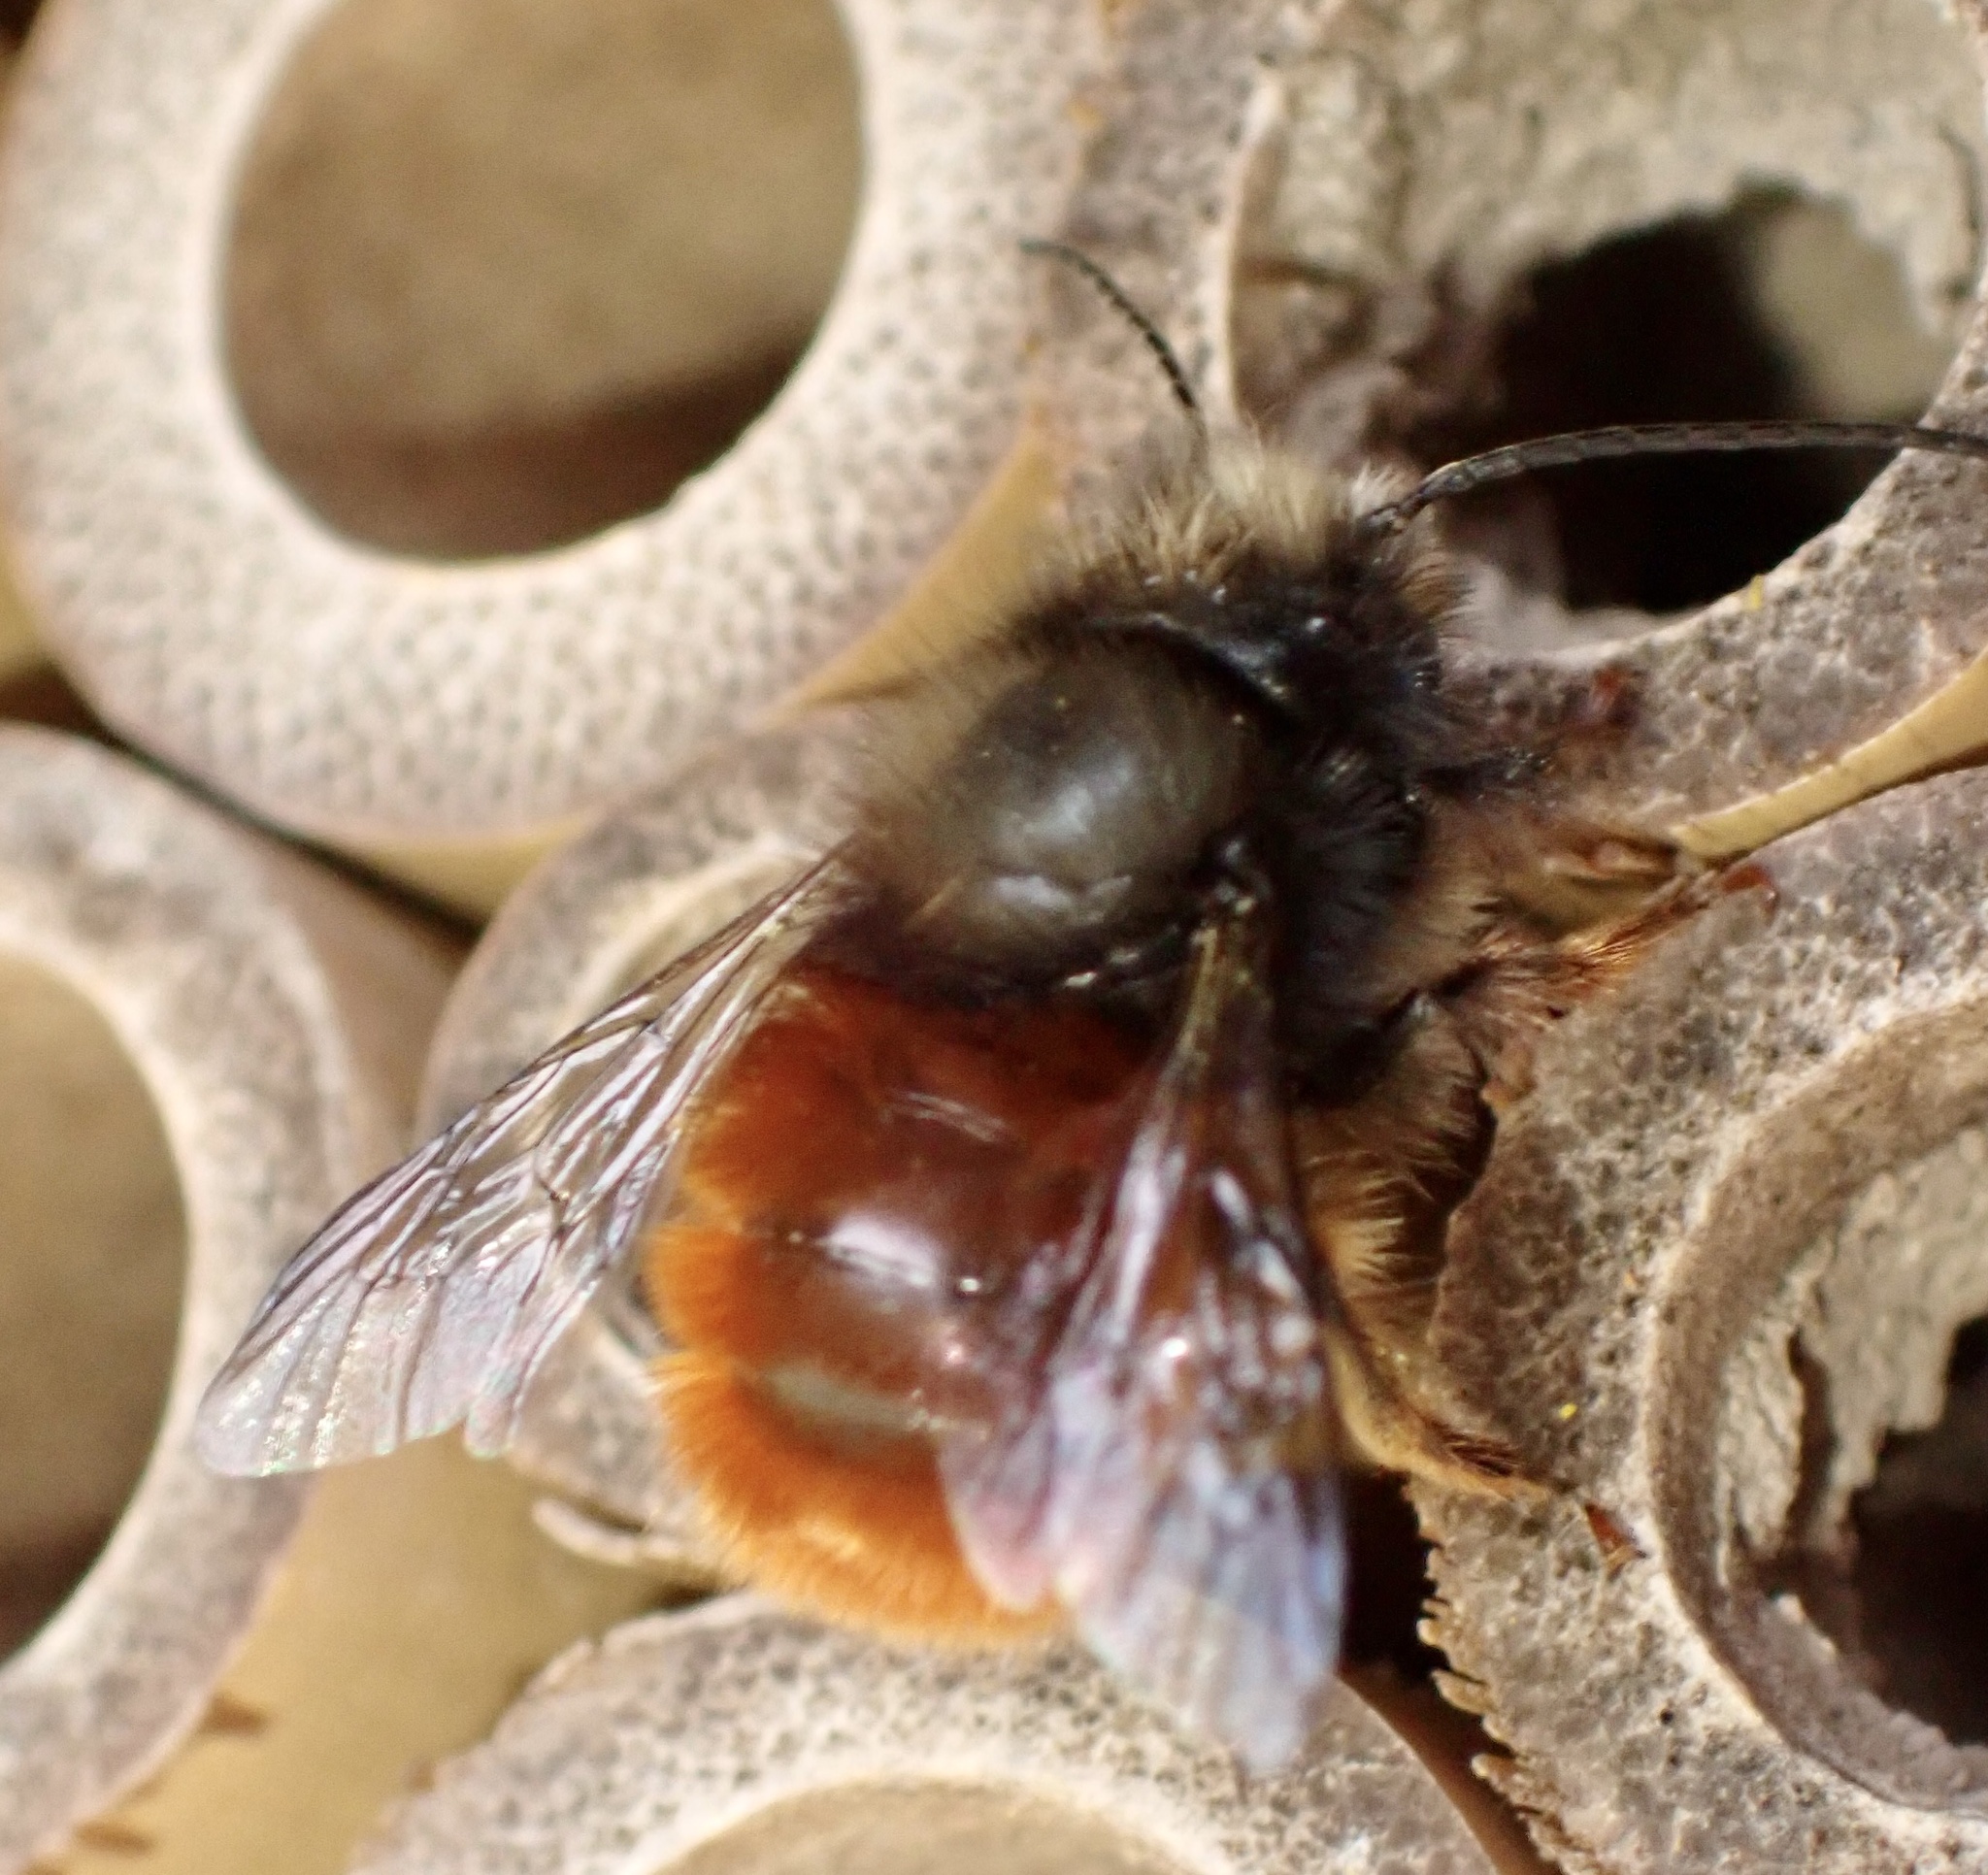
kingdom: Animalia
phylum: Arthropoda
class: Insecta
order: Hymenoptera
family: Megachilidae
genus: Osmia
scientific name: Osmia cornuta
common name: Mason bee
